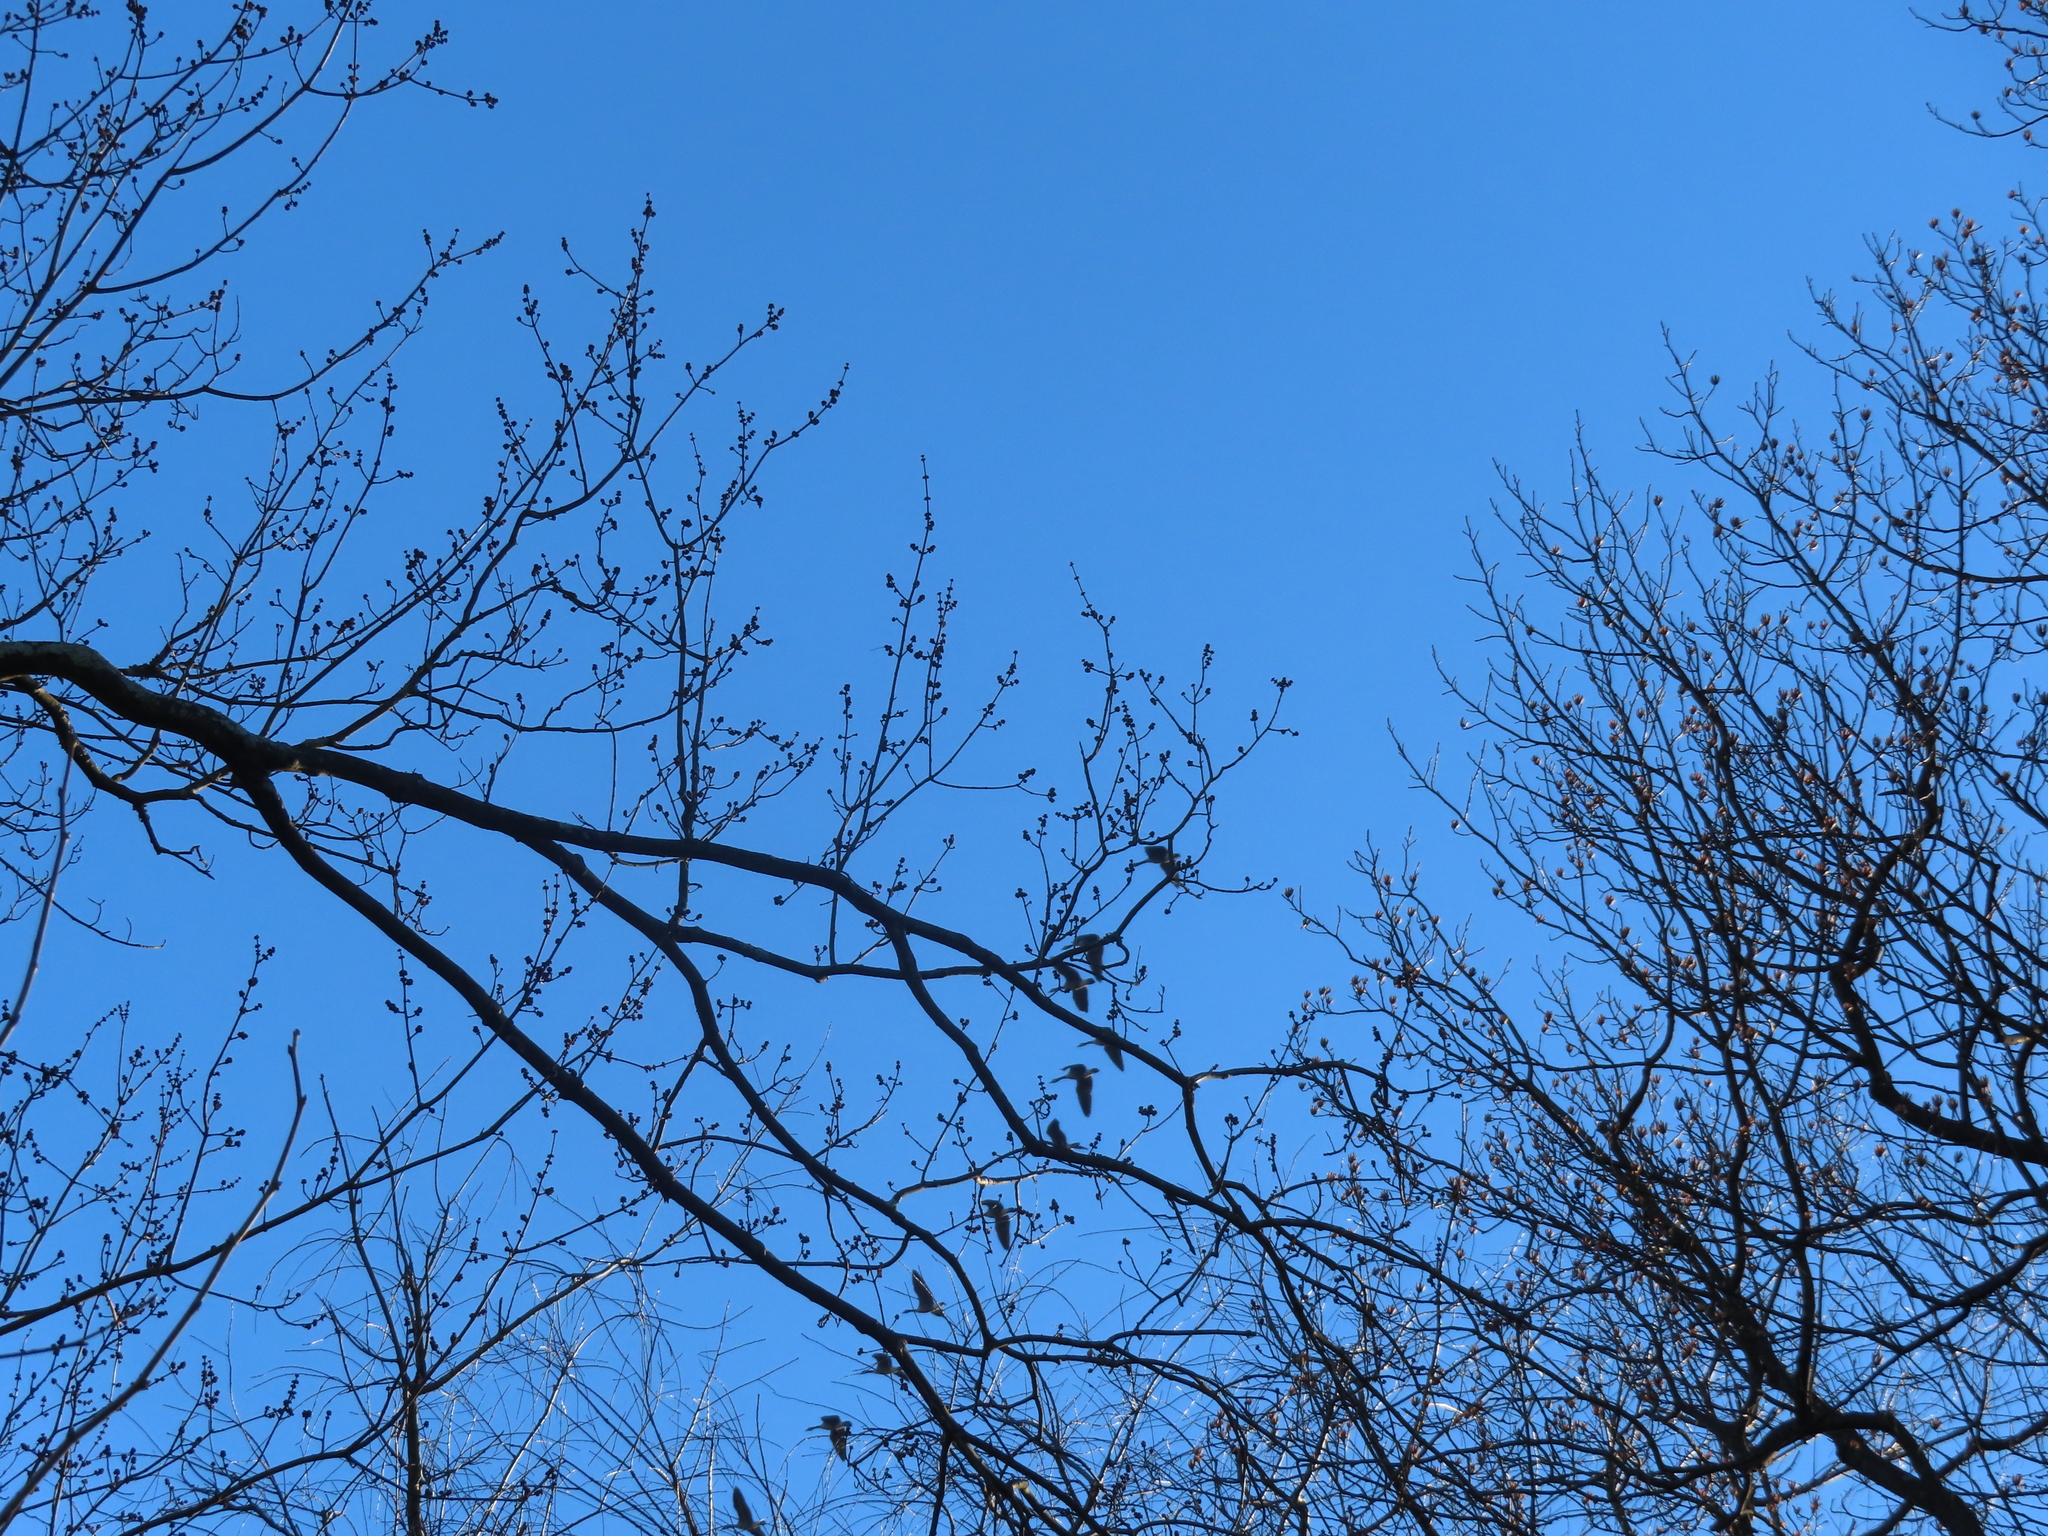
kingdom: Animalia
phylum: Chordata
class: Aves
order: Anseriformes
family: Anatidae
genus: Branta
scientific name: Branta canadensis
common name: Canada goose
